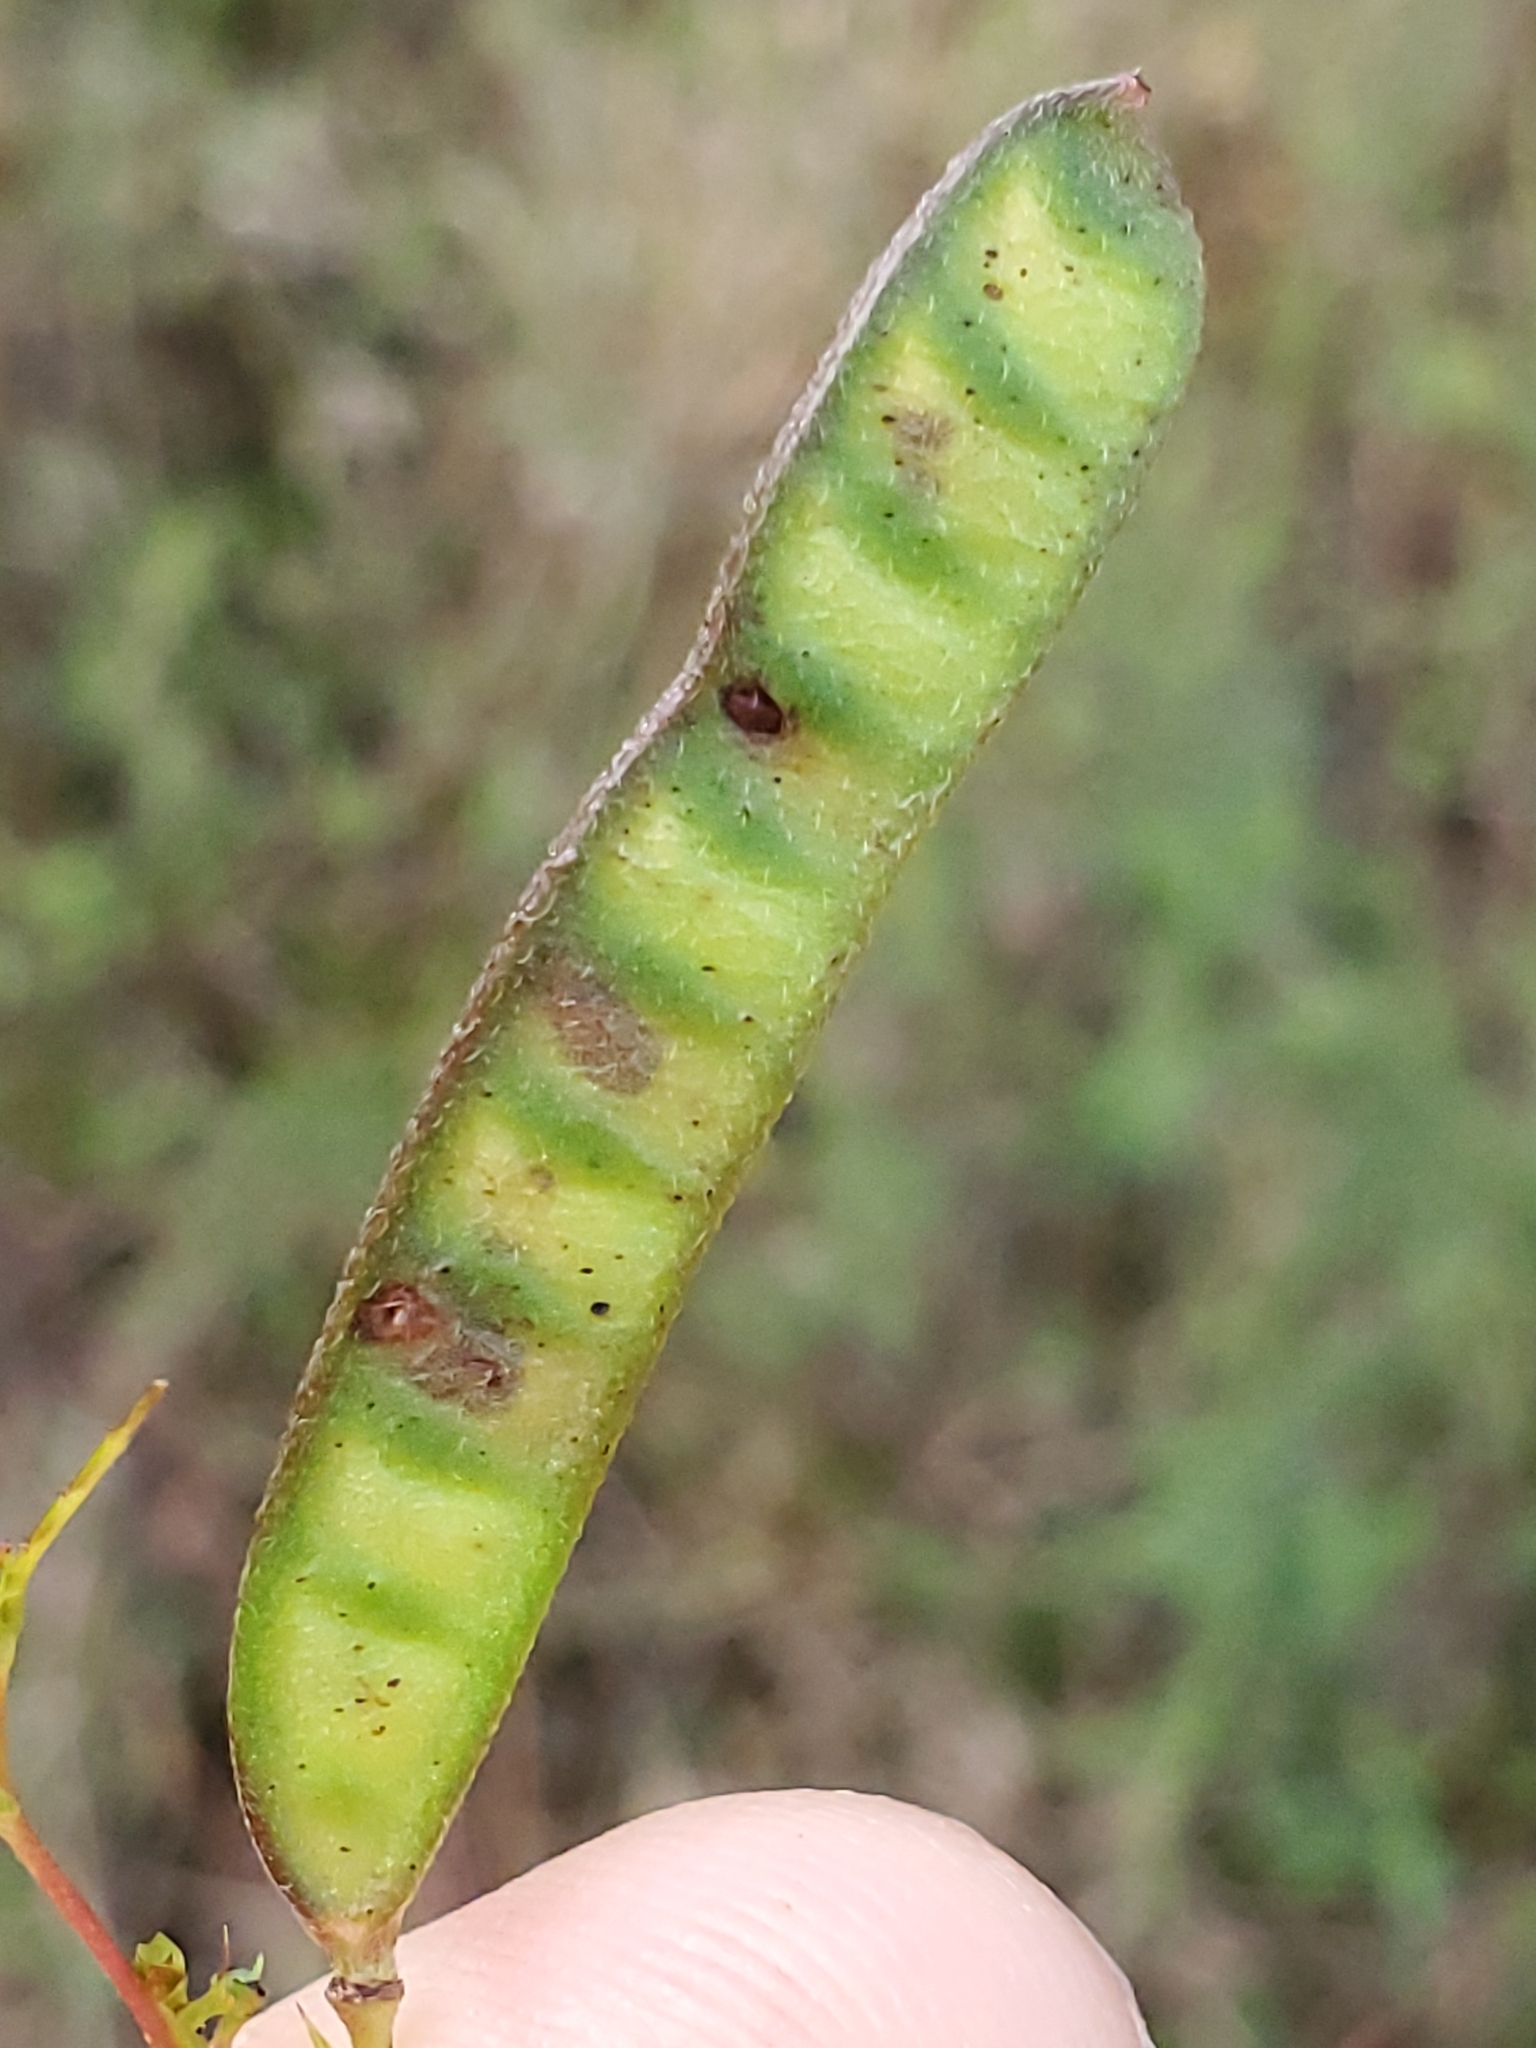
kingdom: Plantae
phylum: Tracheophyta
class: Magnoliopsida
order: Fabales
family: Fabaceae
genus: Chamaecrista
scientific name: Chamaecrista fasciculata
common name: Golden cassia
